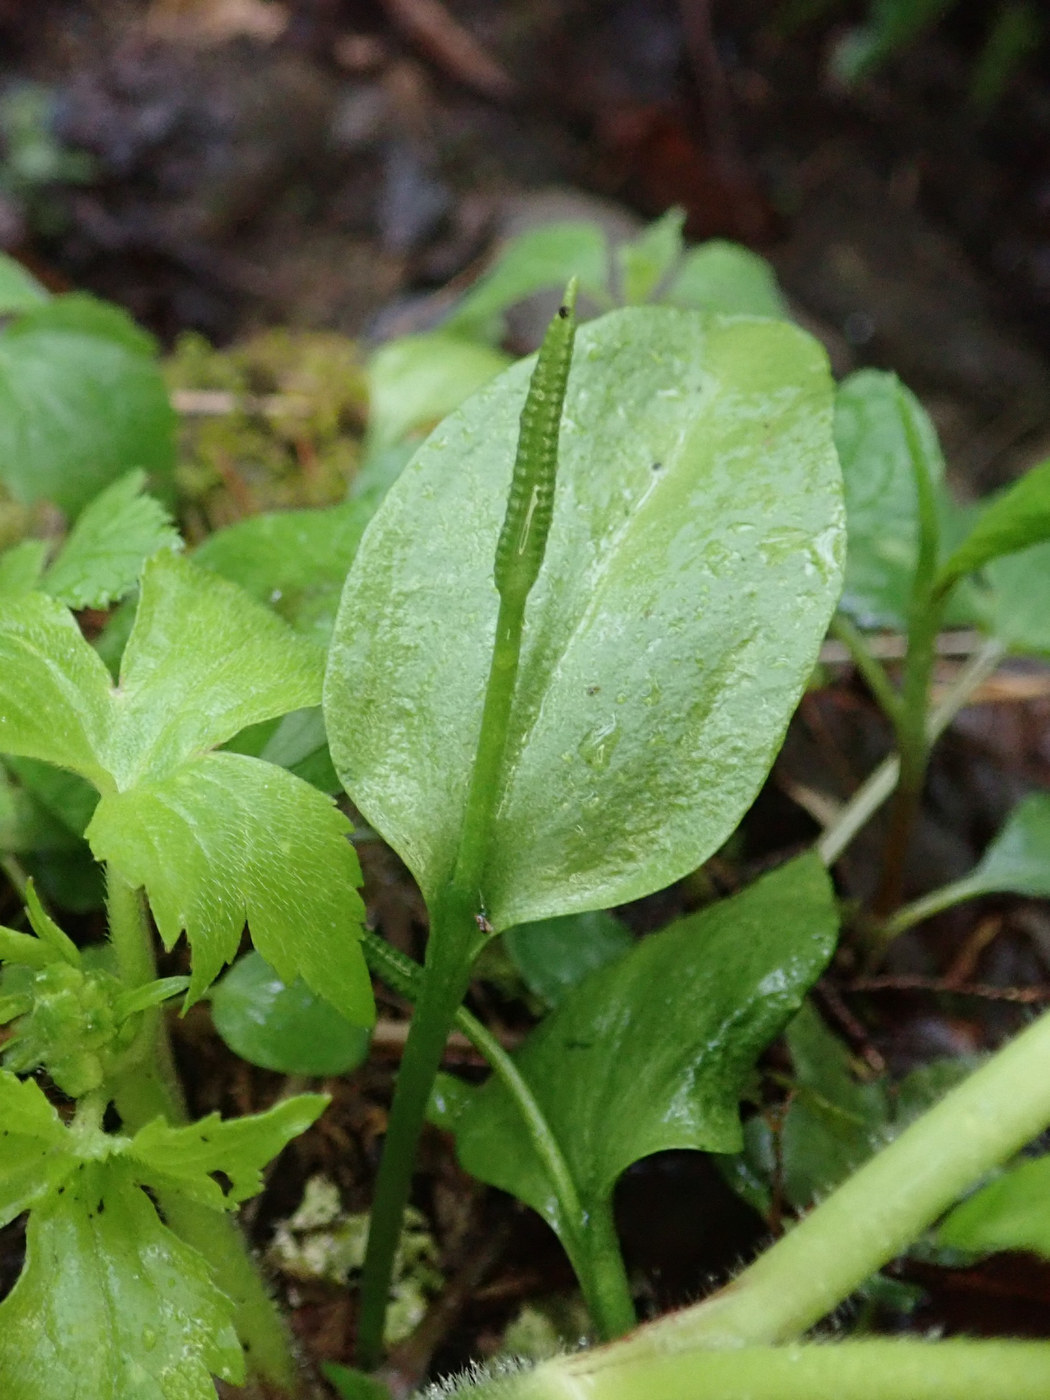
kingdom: Plantae
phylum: Tracheophyta
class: Polypodiopsida
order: Ophioglossales
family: Ophioglossaceae
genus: Ophioglossum
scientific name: Ophioglossum vulgatum
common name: Adder's-tongue
